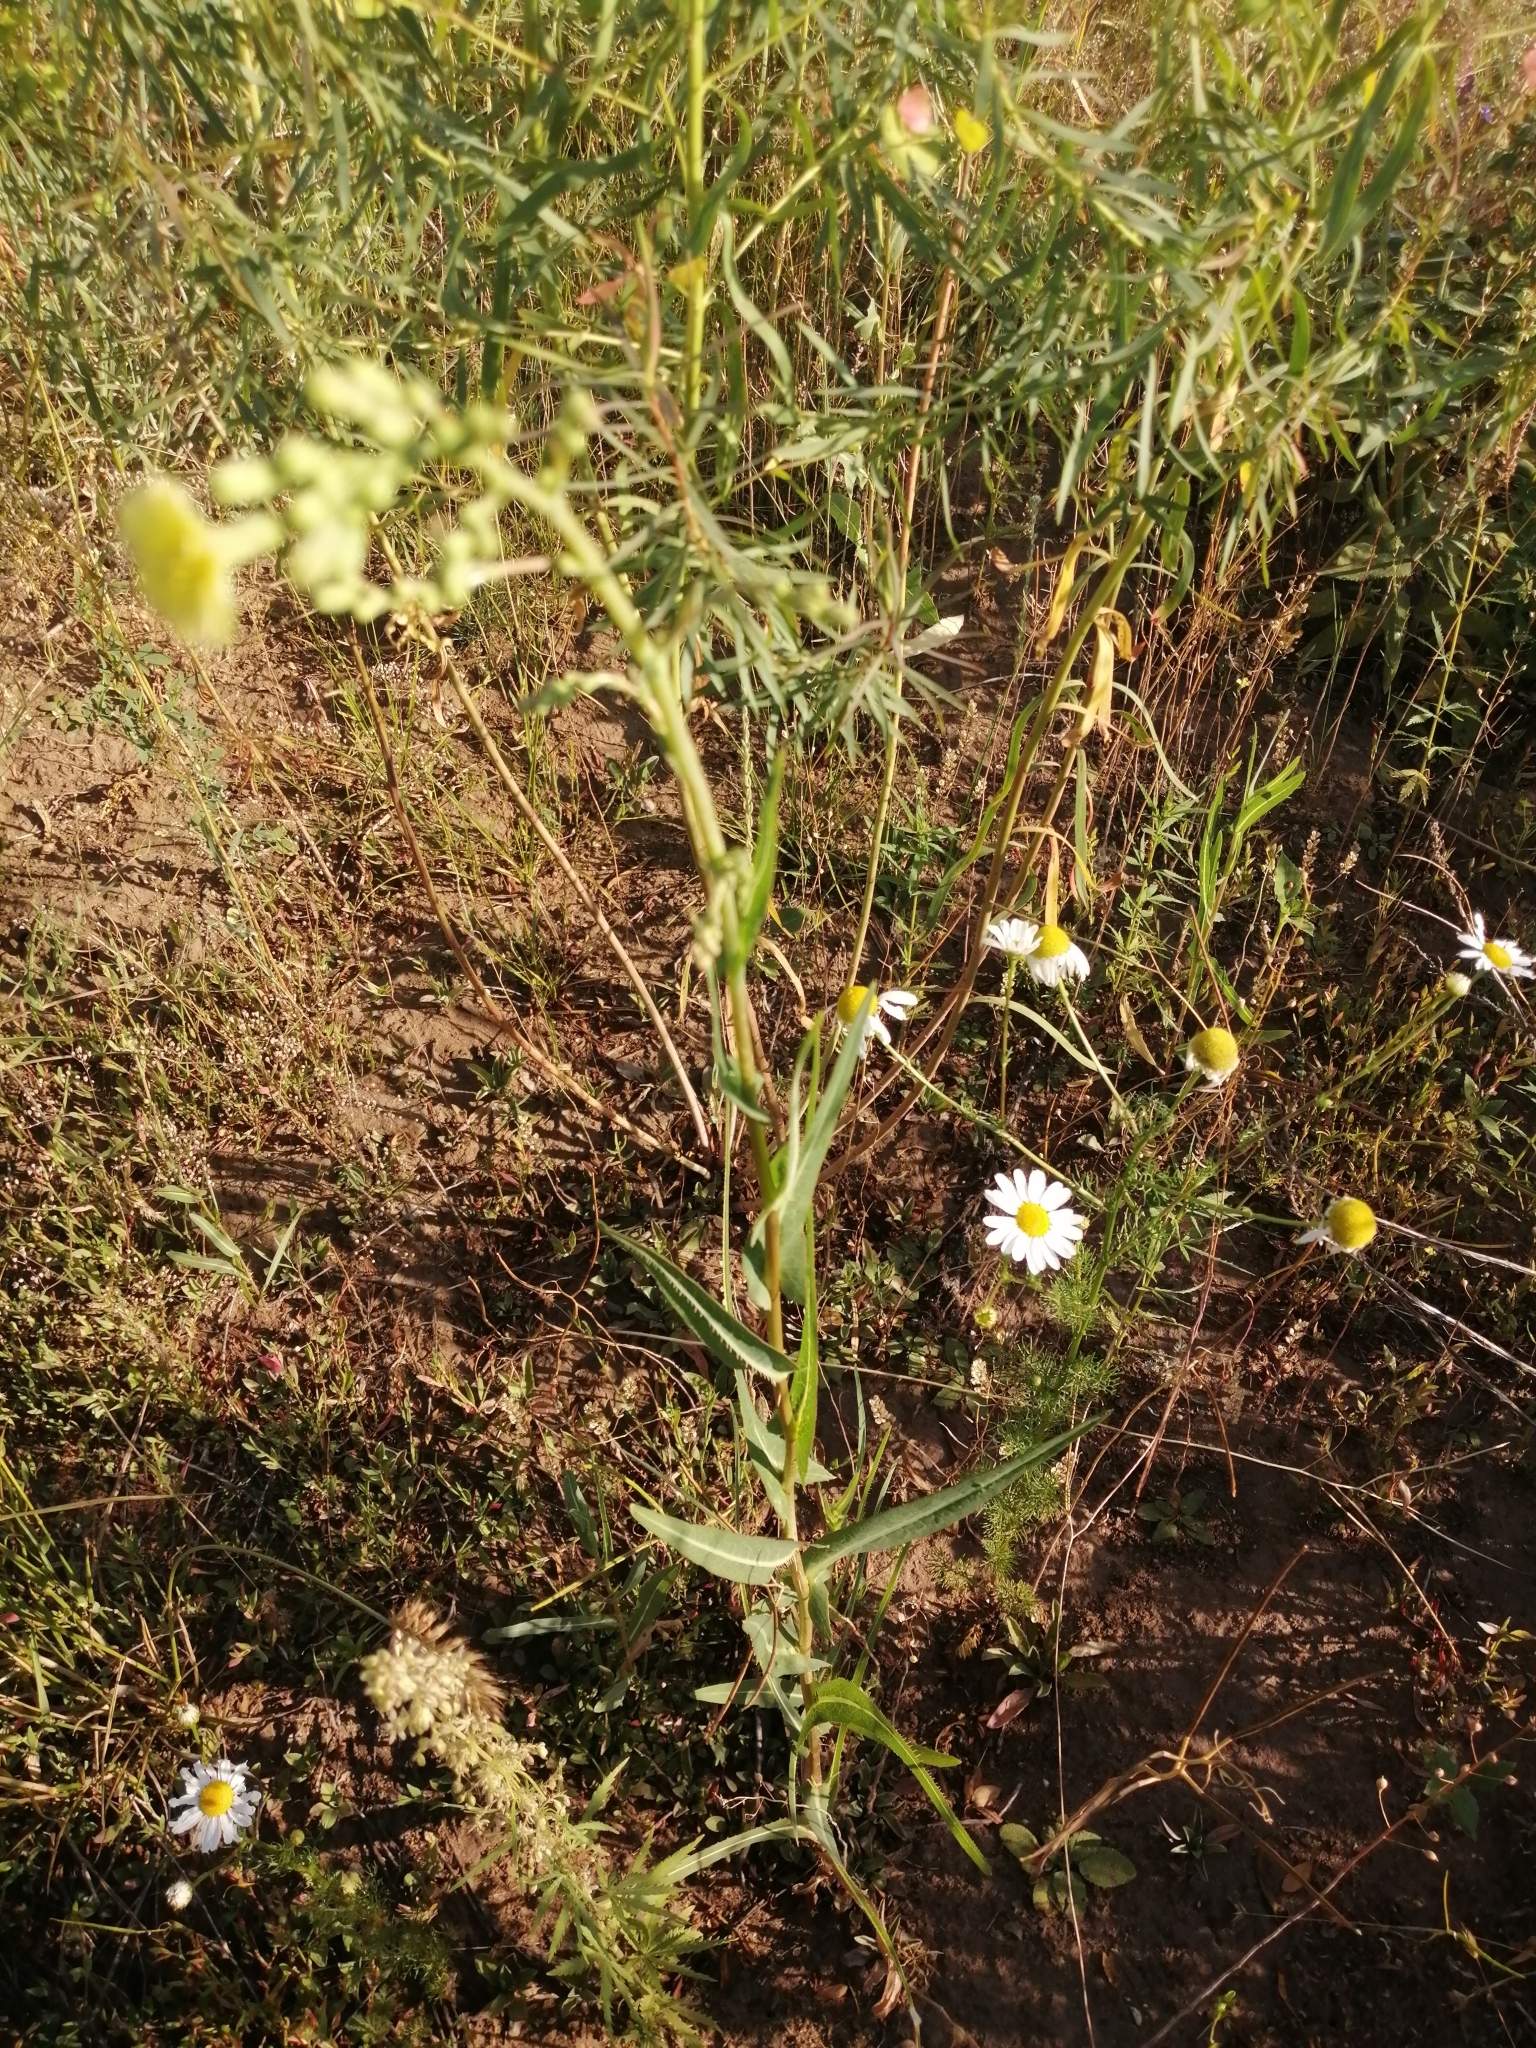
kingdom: Plantae
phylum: Tracheophyta
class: Magnoliopsida
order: Asterales
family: Asteraceae
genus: Lactuca
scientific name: Lactuca serriola
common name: Prickly lettuce
